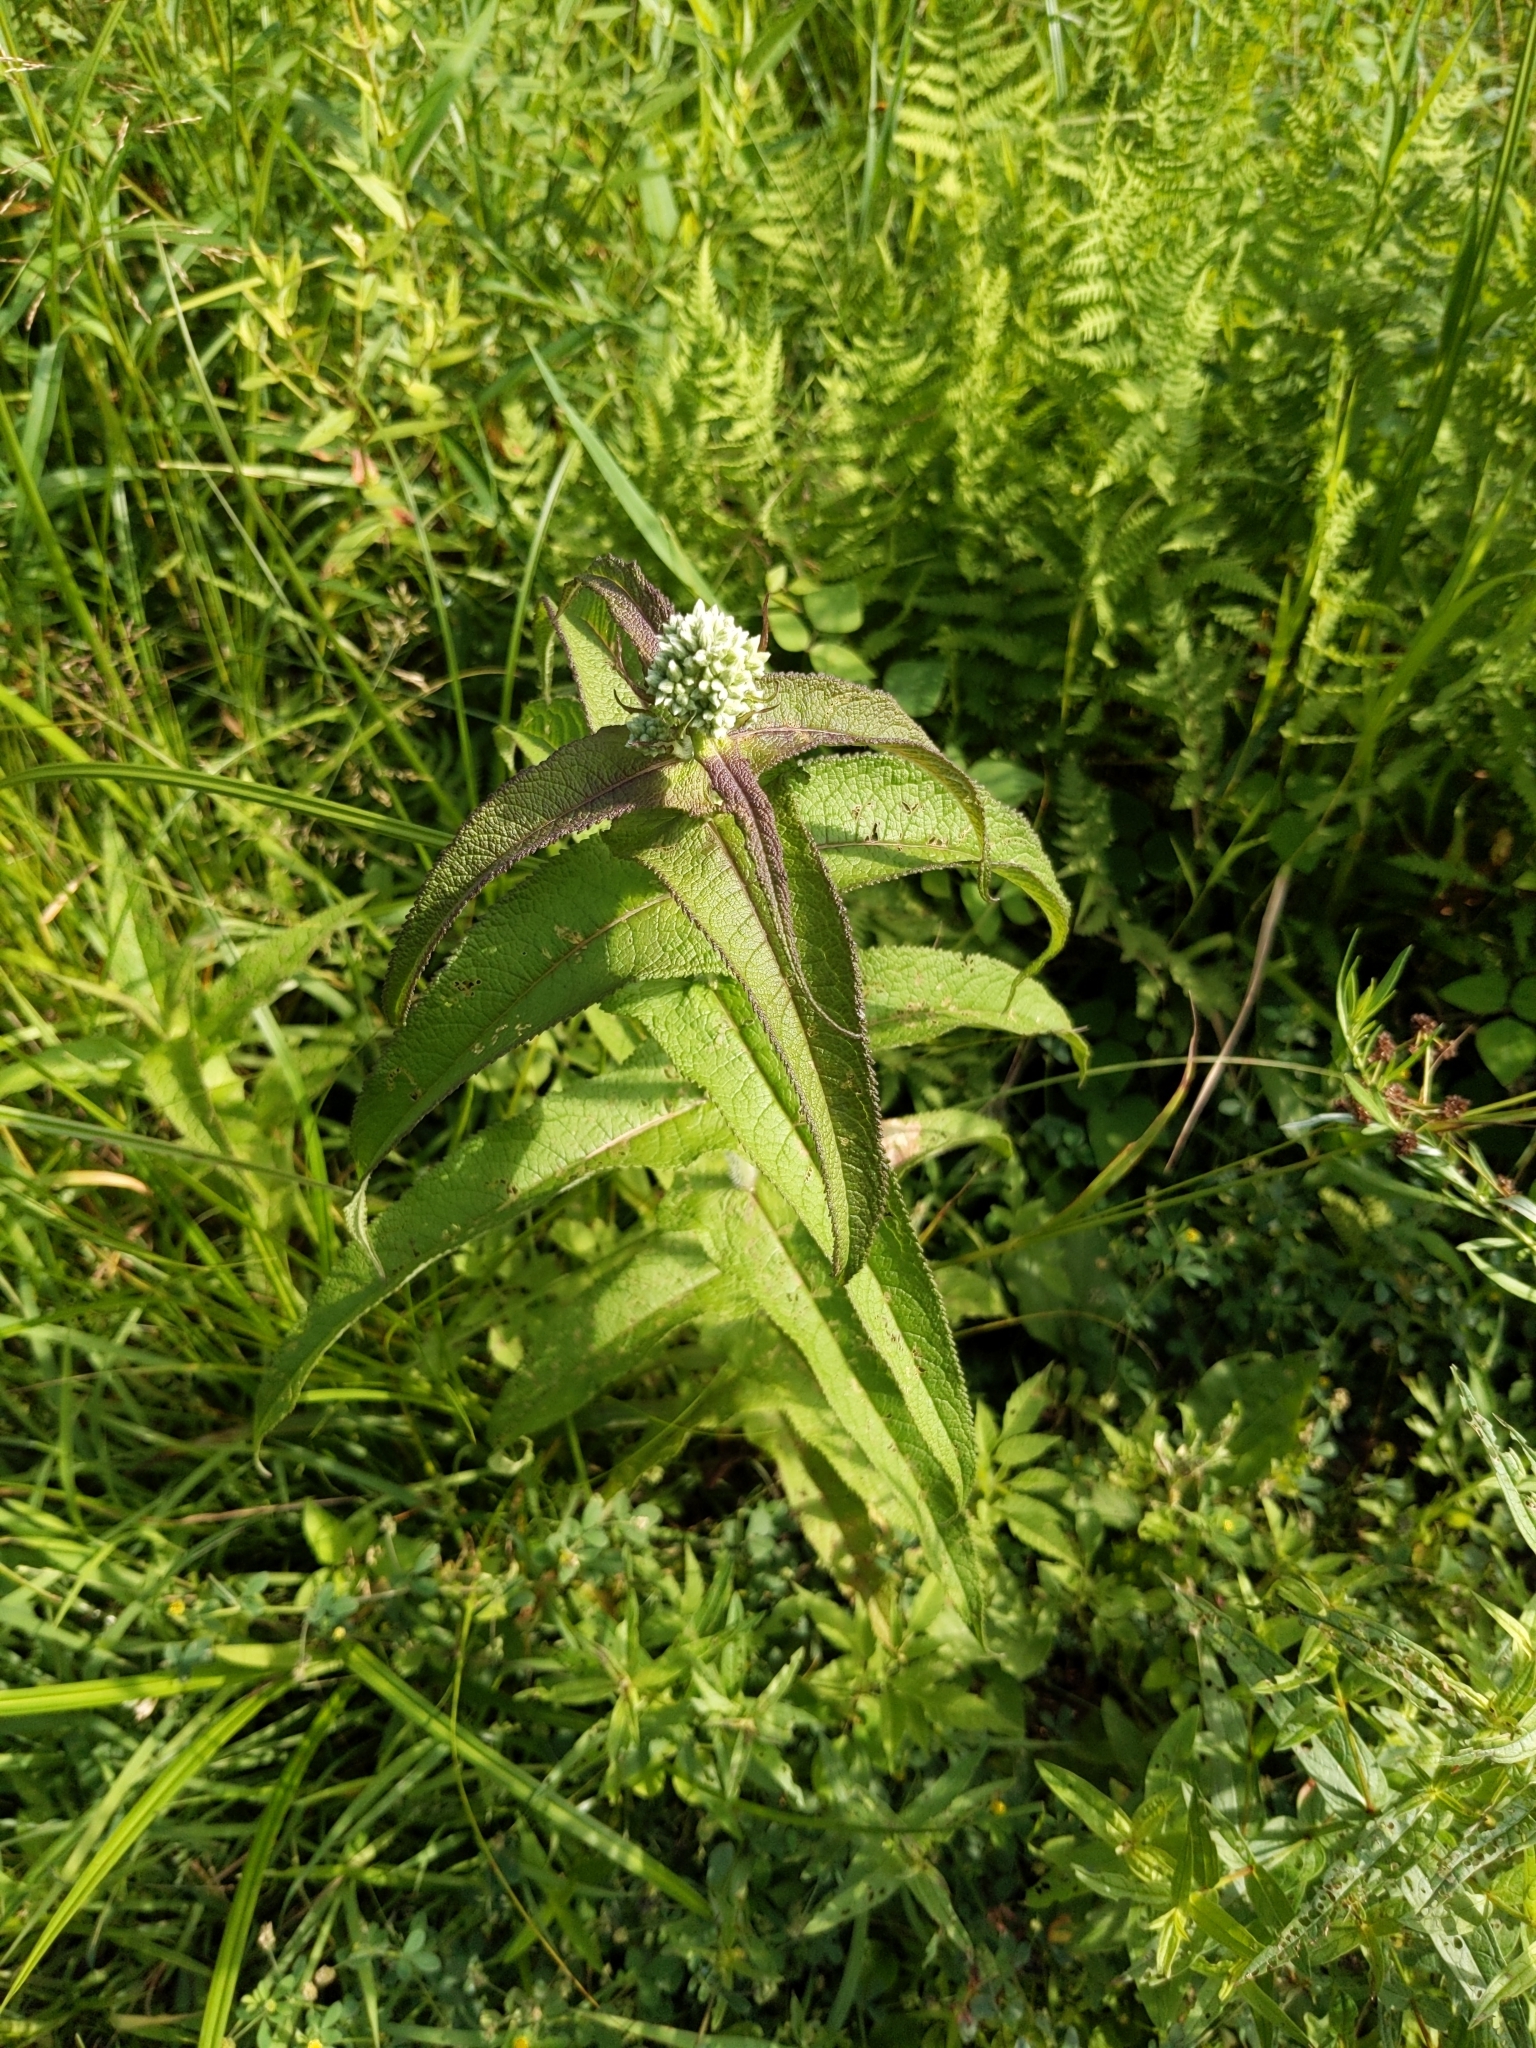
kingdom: Plantae
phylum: Tracheophyta
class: Magnoliopsida
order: Asterales
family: Asteraceae
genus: Eupatorium
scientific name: Eupatorium perfoliatum
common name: Boneset
